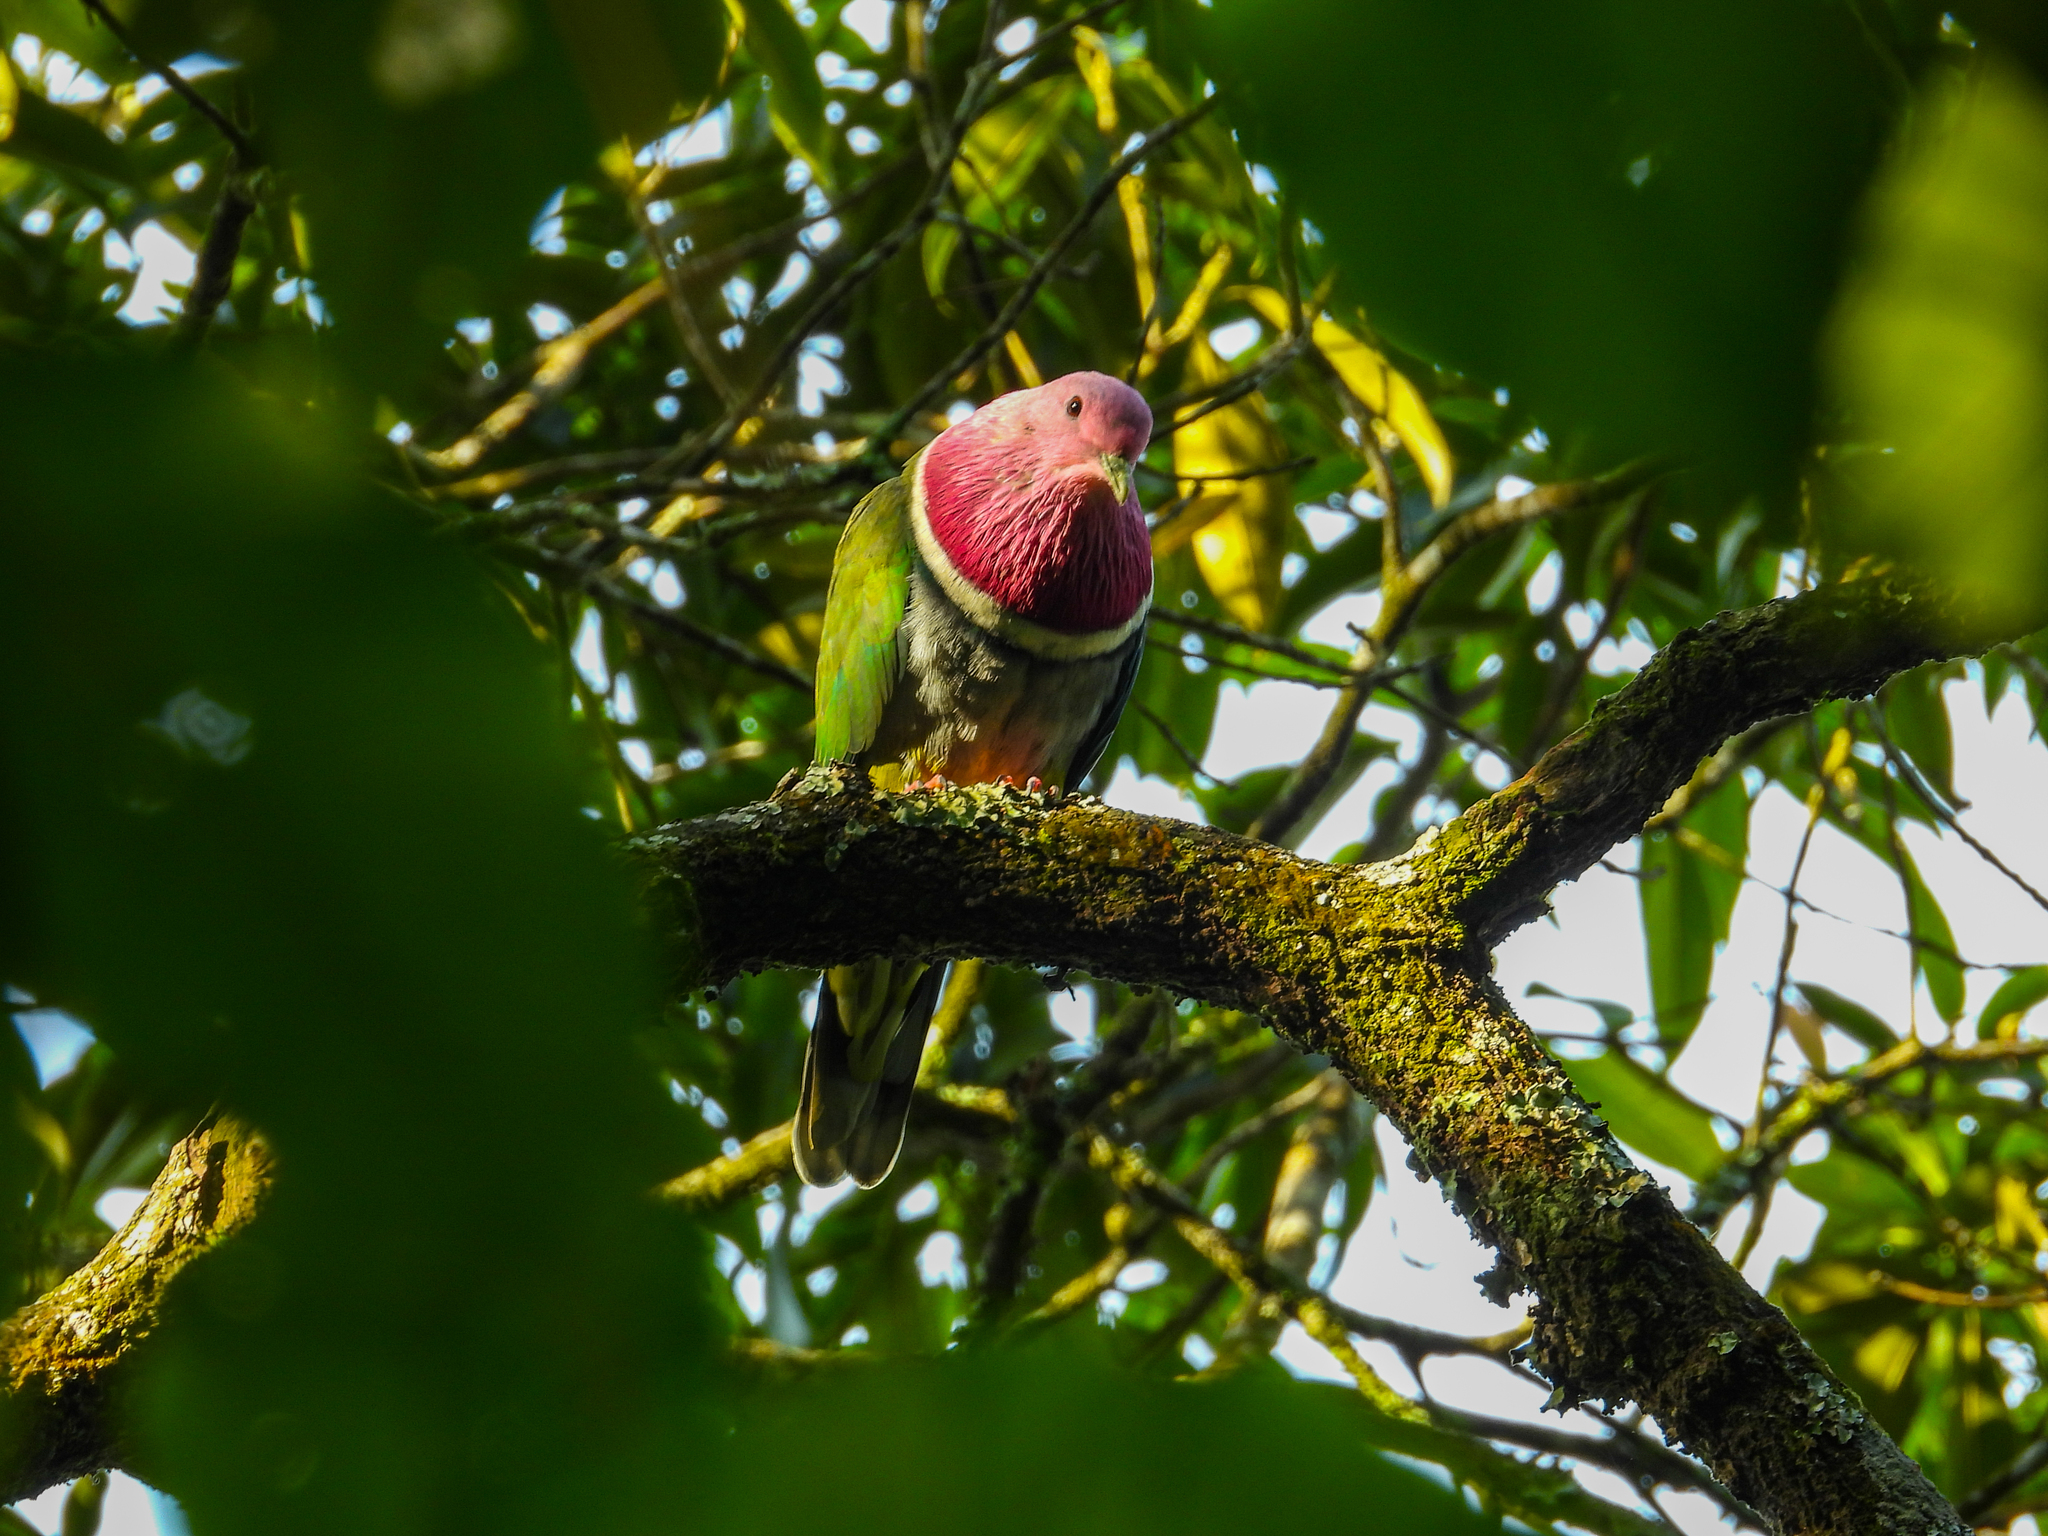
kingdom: Animalia
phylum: Chordata
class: Aves
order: Columbiformes
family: Columbidae
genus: Ptilinopus
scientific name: Ptilinopus porphyreus
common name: Pink-headed fruit dove
